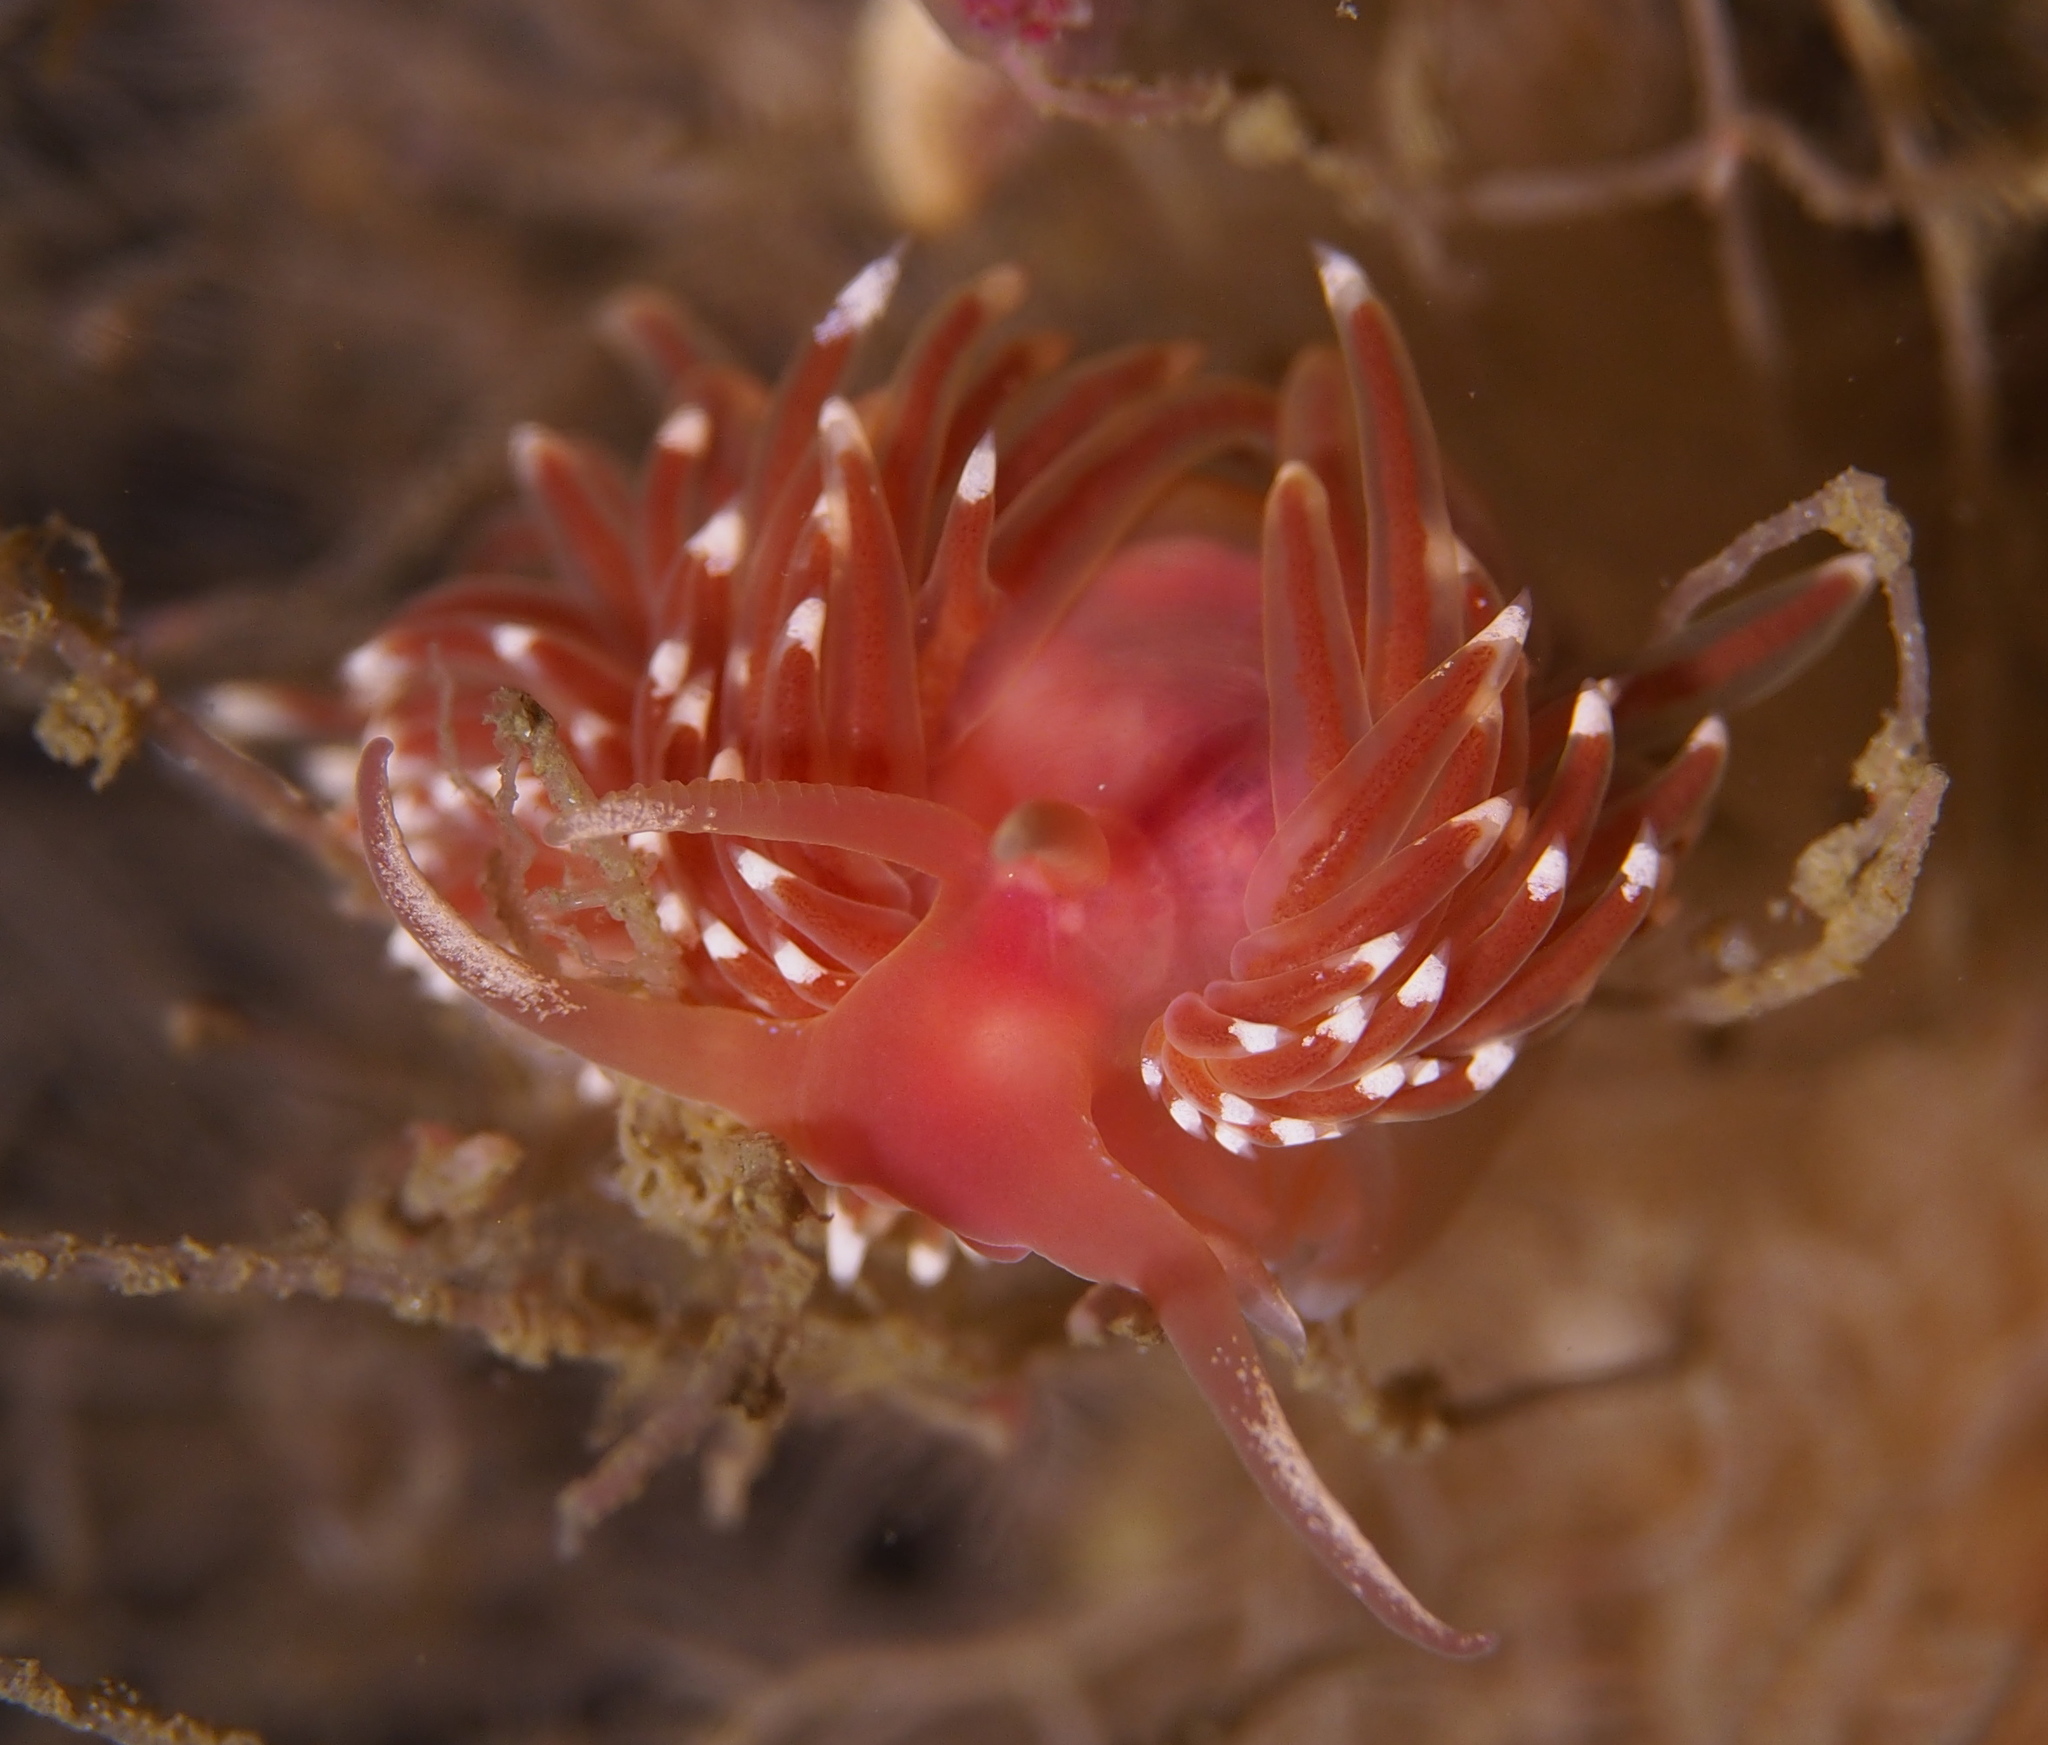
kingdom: Animalia
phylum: Mollusca
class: Gastropoda
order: Nudibranchia
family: Facelinidae
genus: Facelina
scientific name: Facelina bostoniensis
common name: Boston facelina
